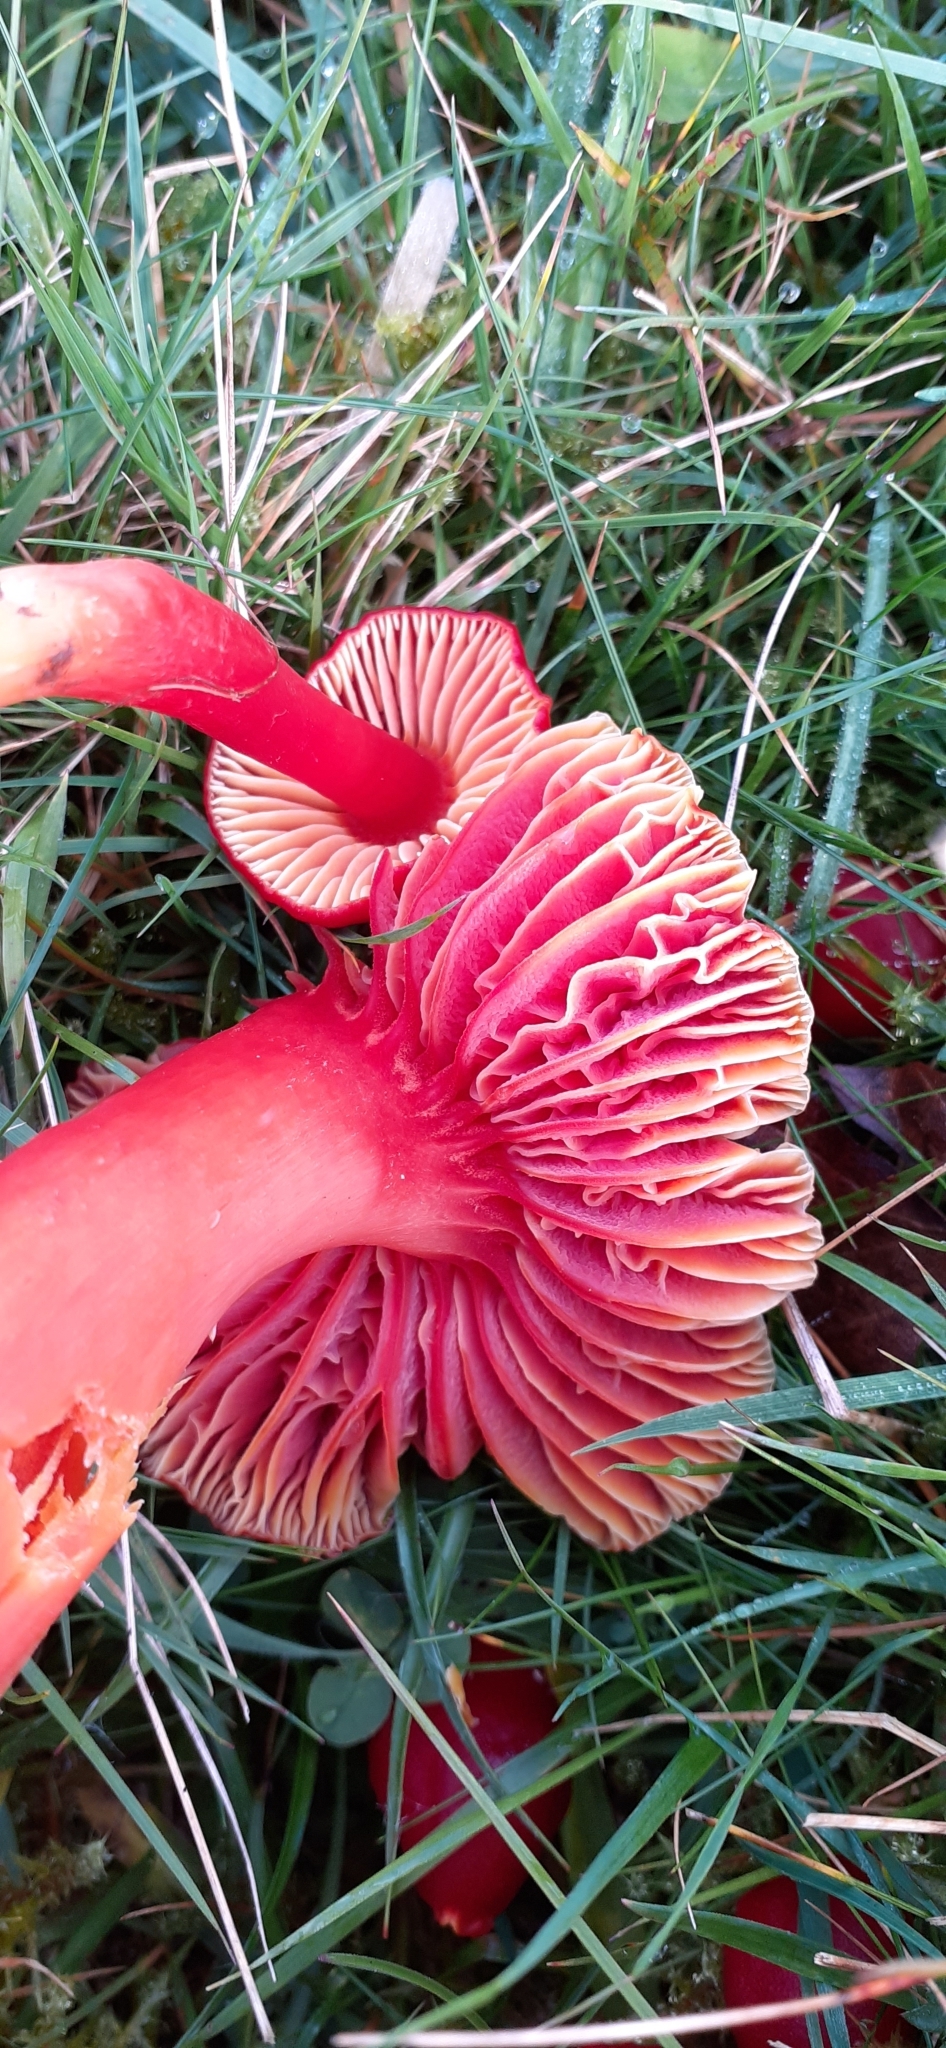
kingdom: Fungi
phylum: Basidiomycota
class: Agaricomycetes
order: Agaricales
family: Hygrophoraceae
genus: Hygrocybe
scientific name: Hygrocybe coccinea
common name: Scarlet hood
